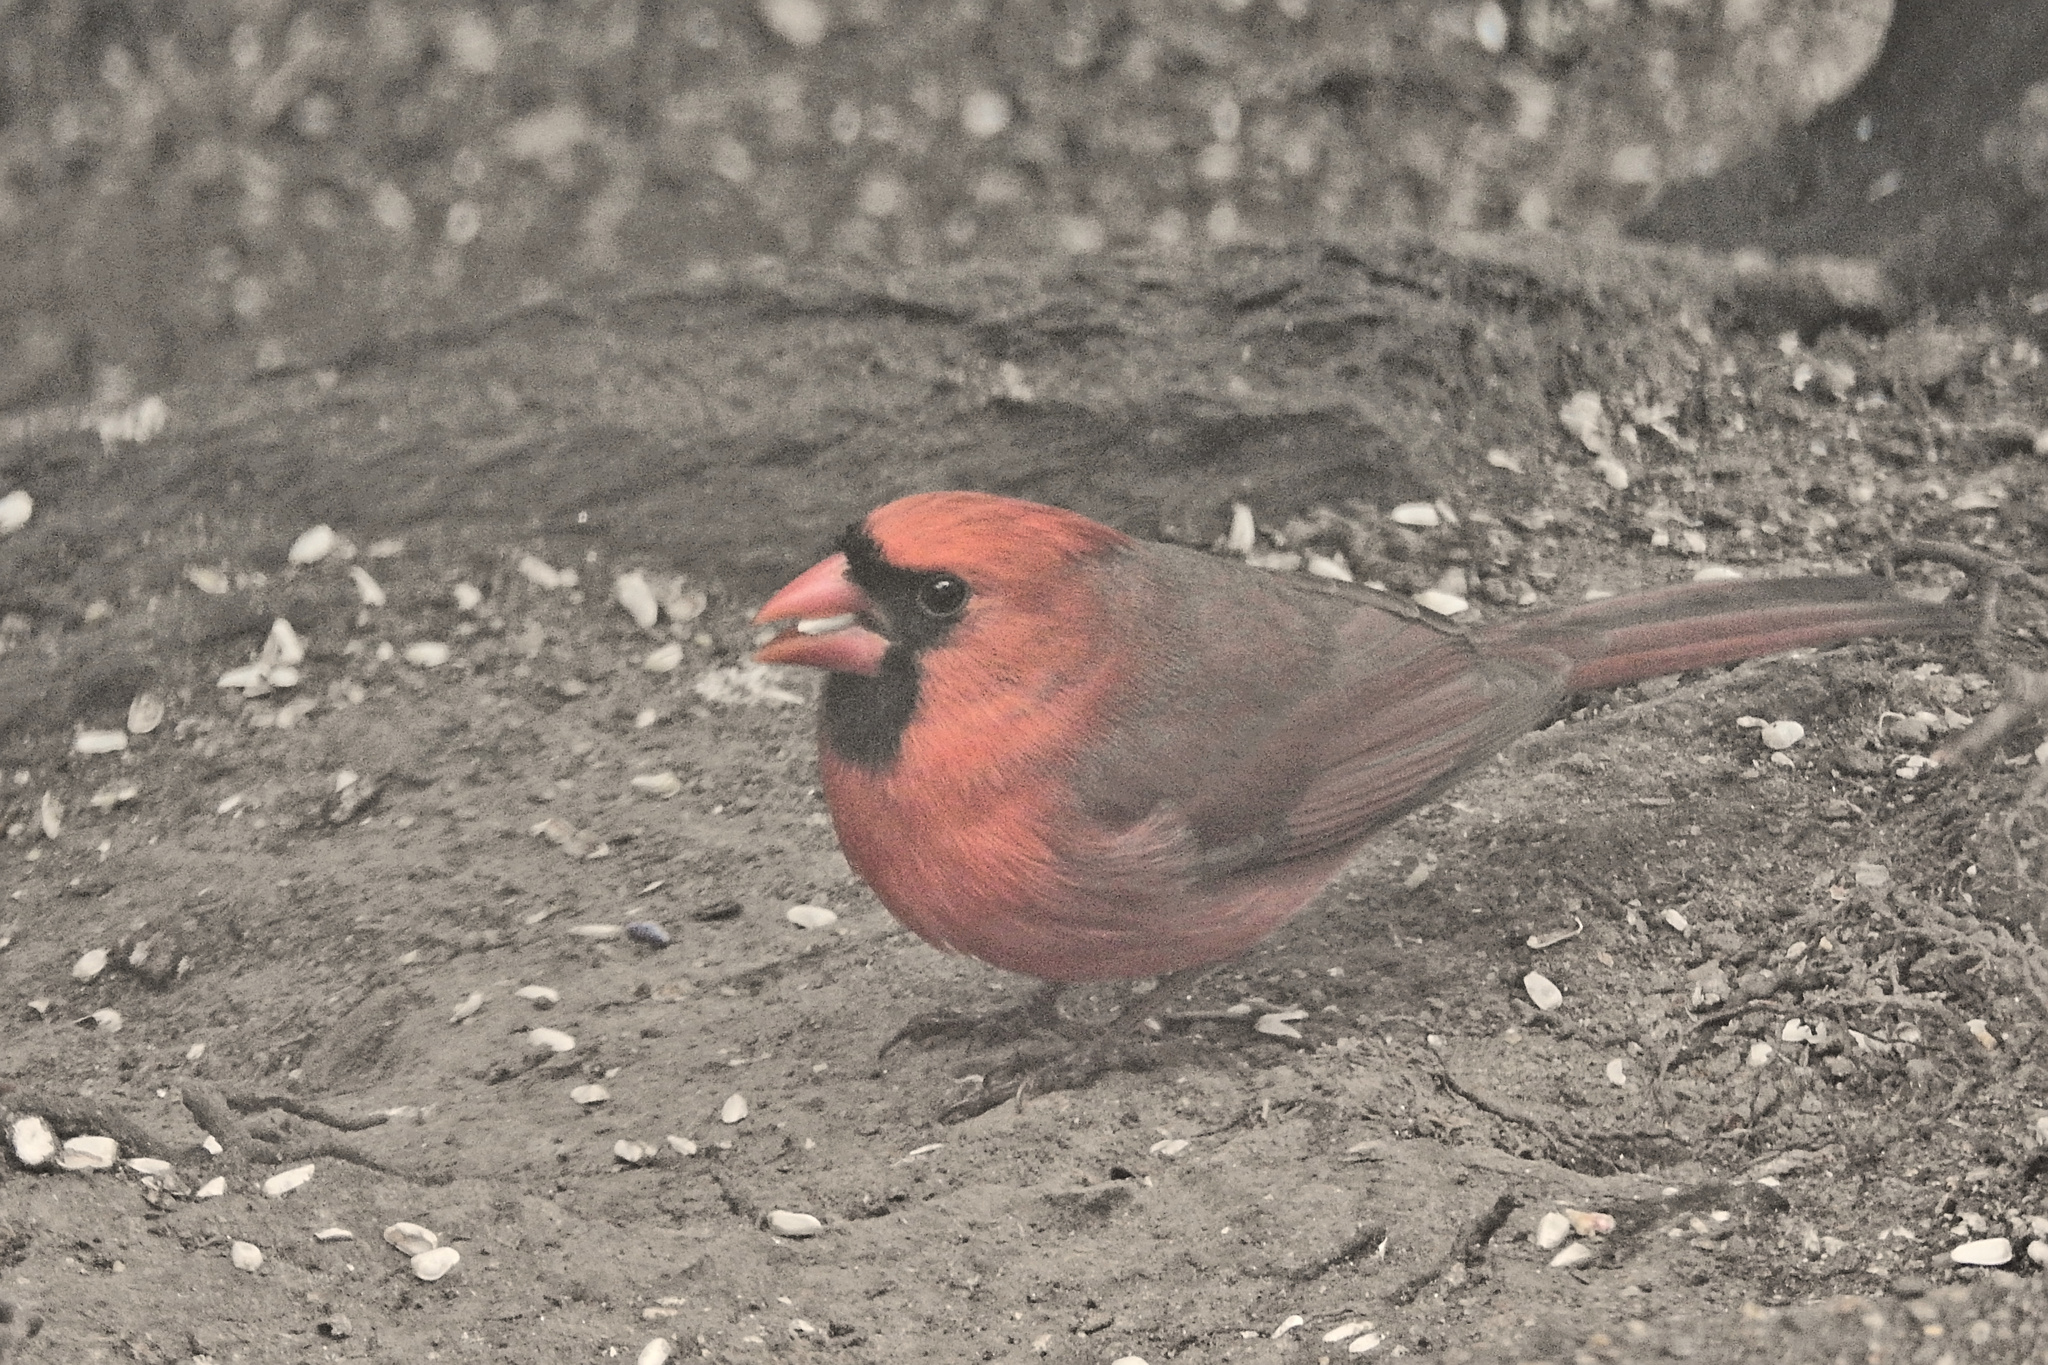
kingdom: Animalia
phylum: Chordata
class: Aves
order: Passeriformes
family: Cardinalidae
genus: Cardinalis
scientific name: Cardinalis cardinalis
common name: Northern cardinal
